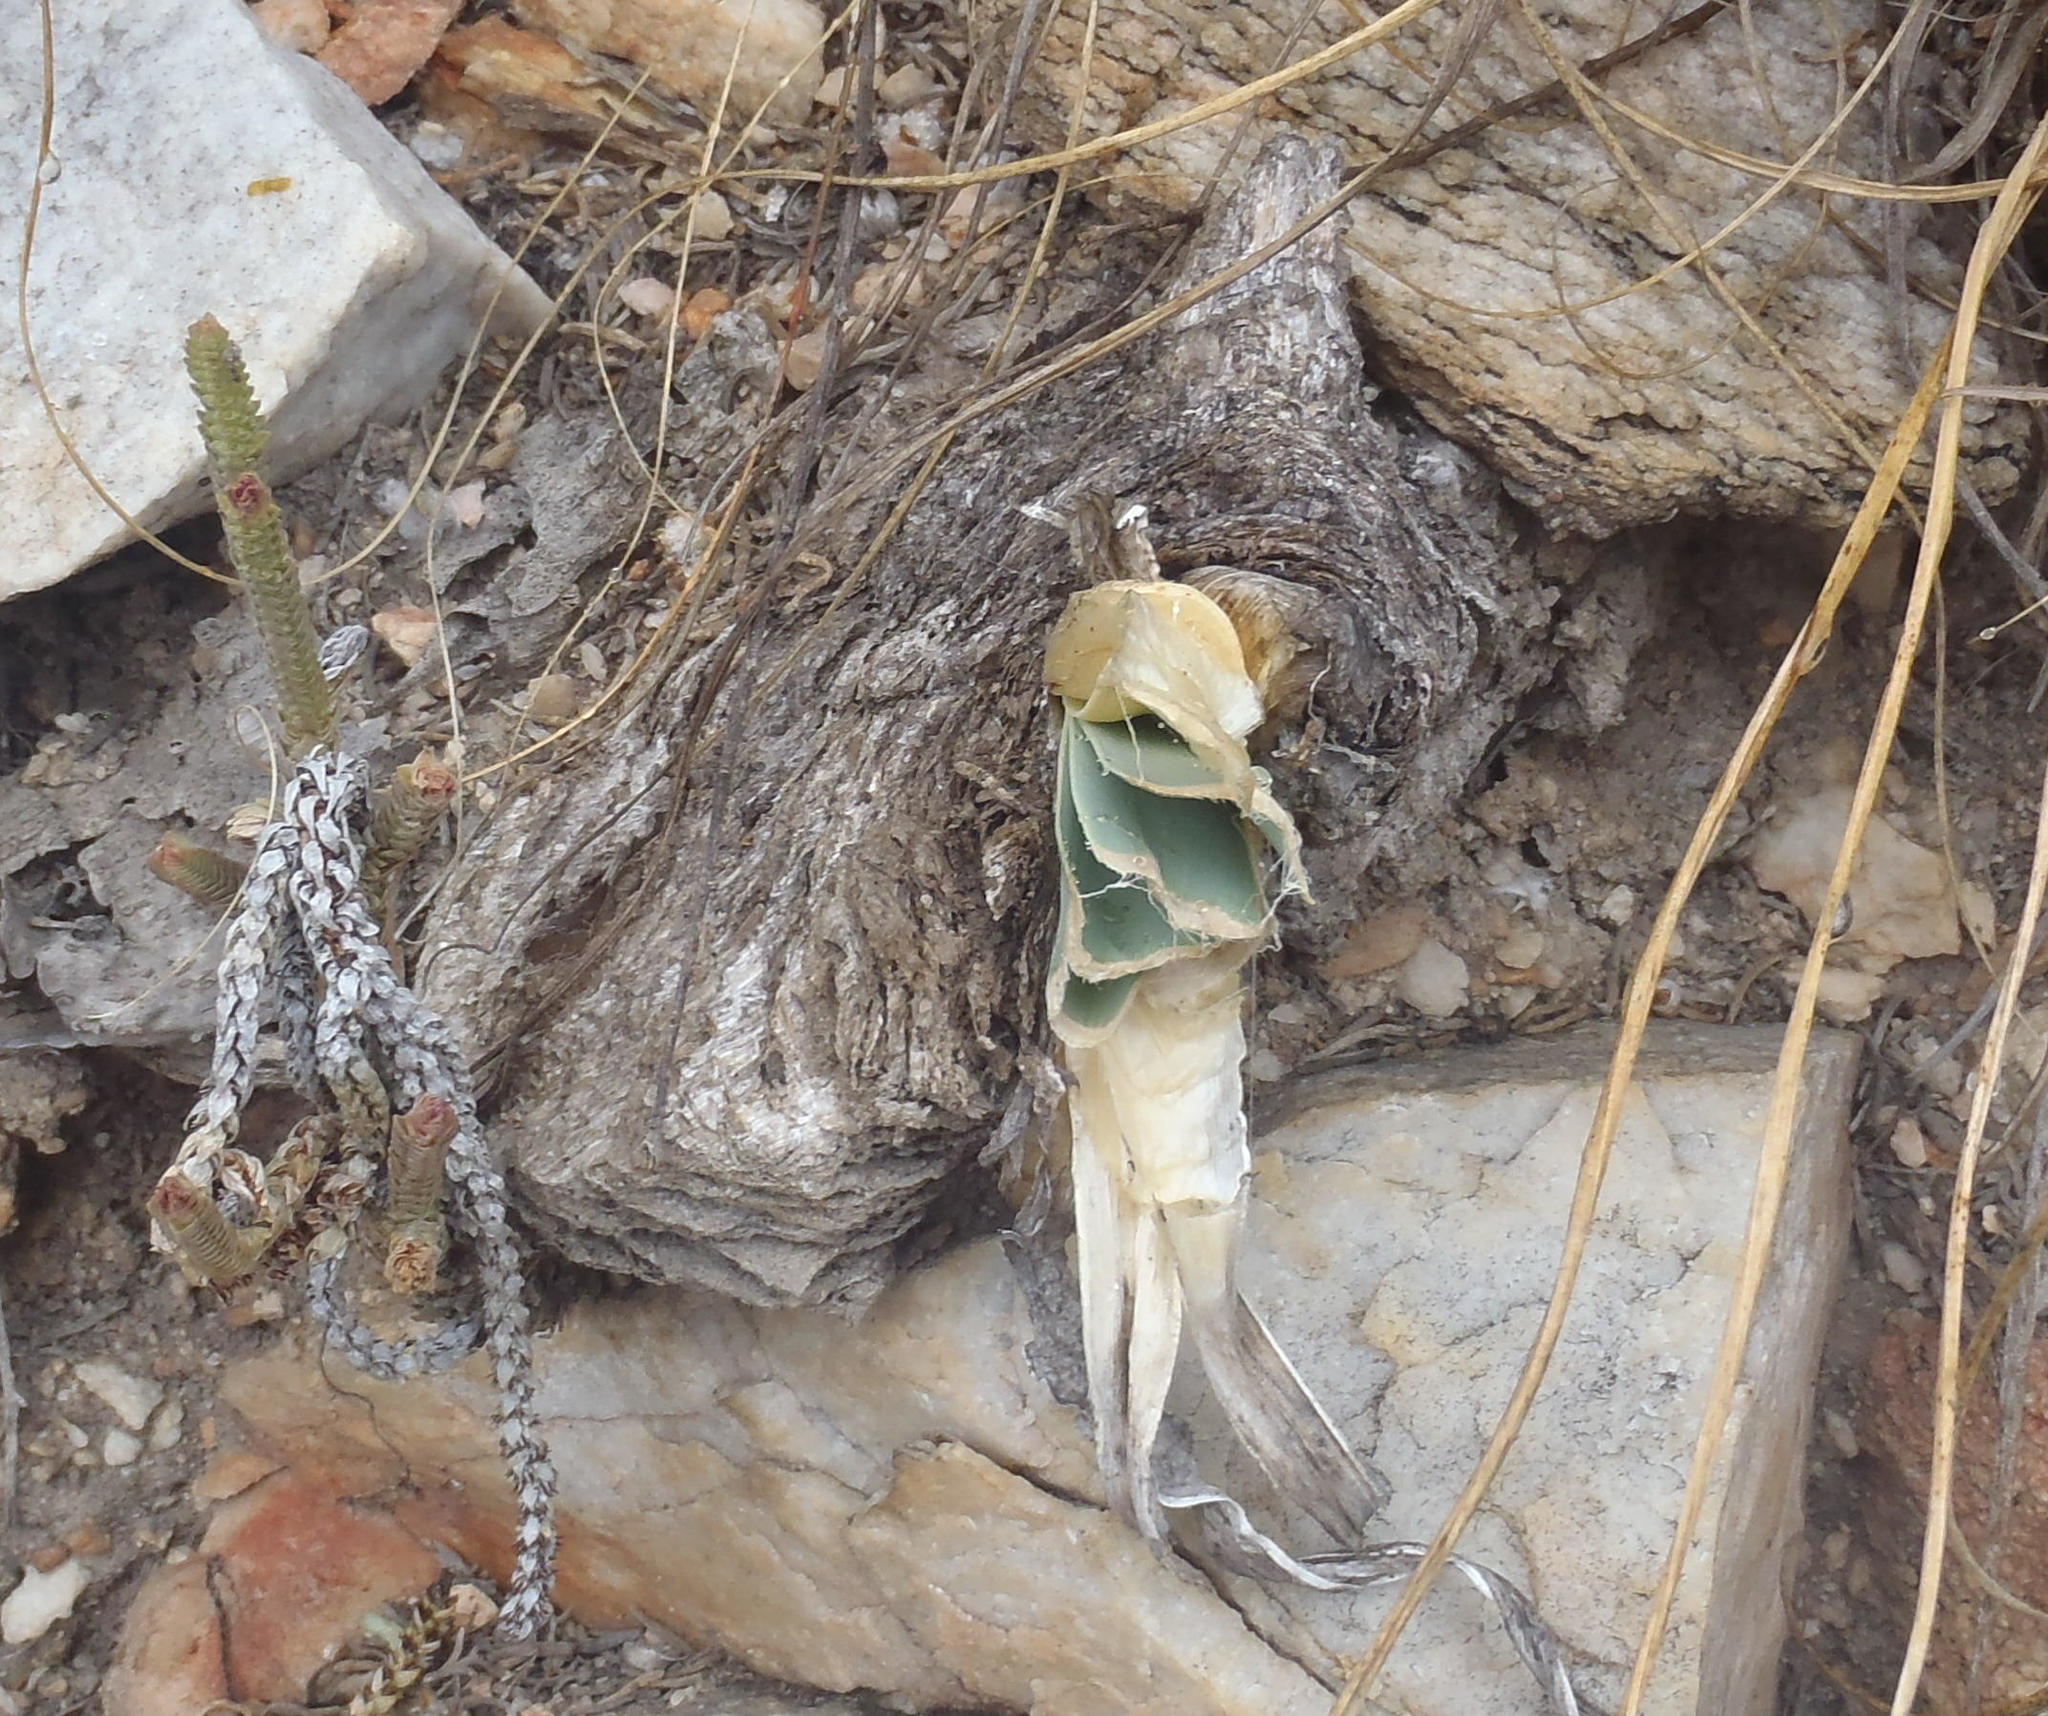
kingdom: Plantae
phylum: Tracheophyta
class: Liliopsida
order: Asparagales
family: Amaryllidaceae
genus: Boophone
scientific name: Boophone disticha
